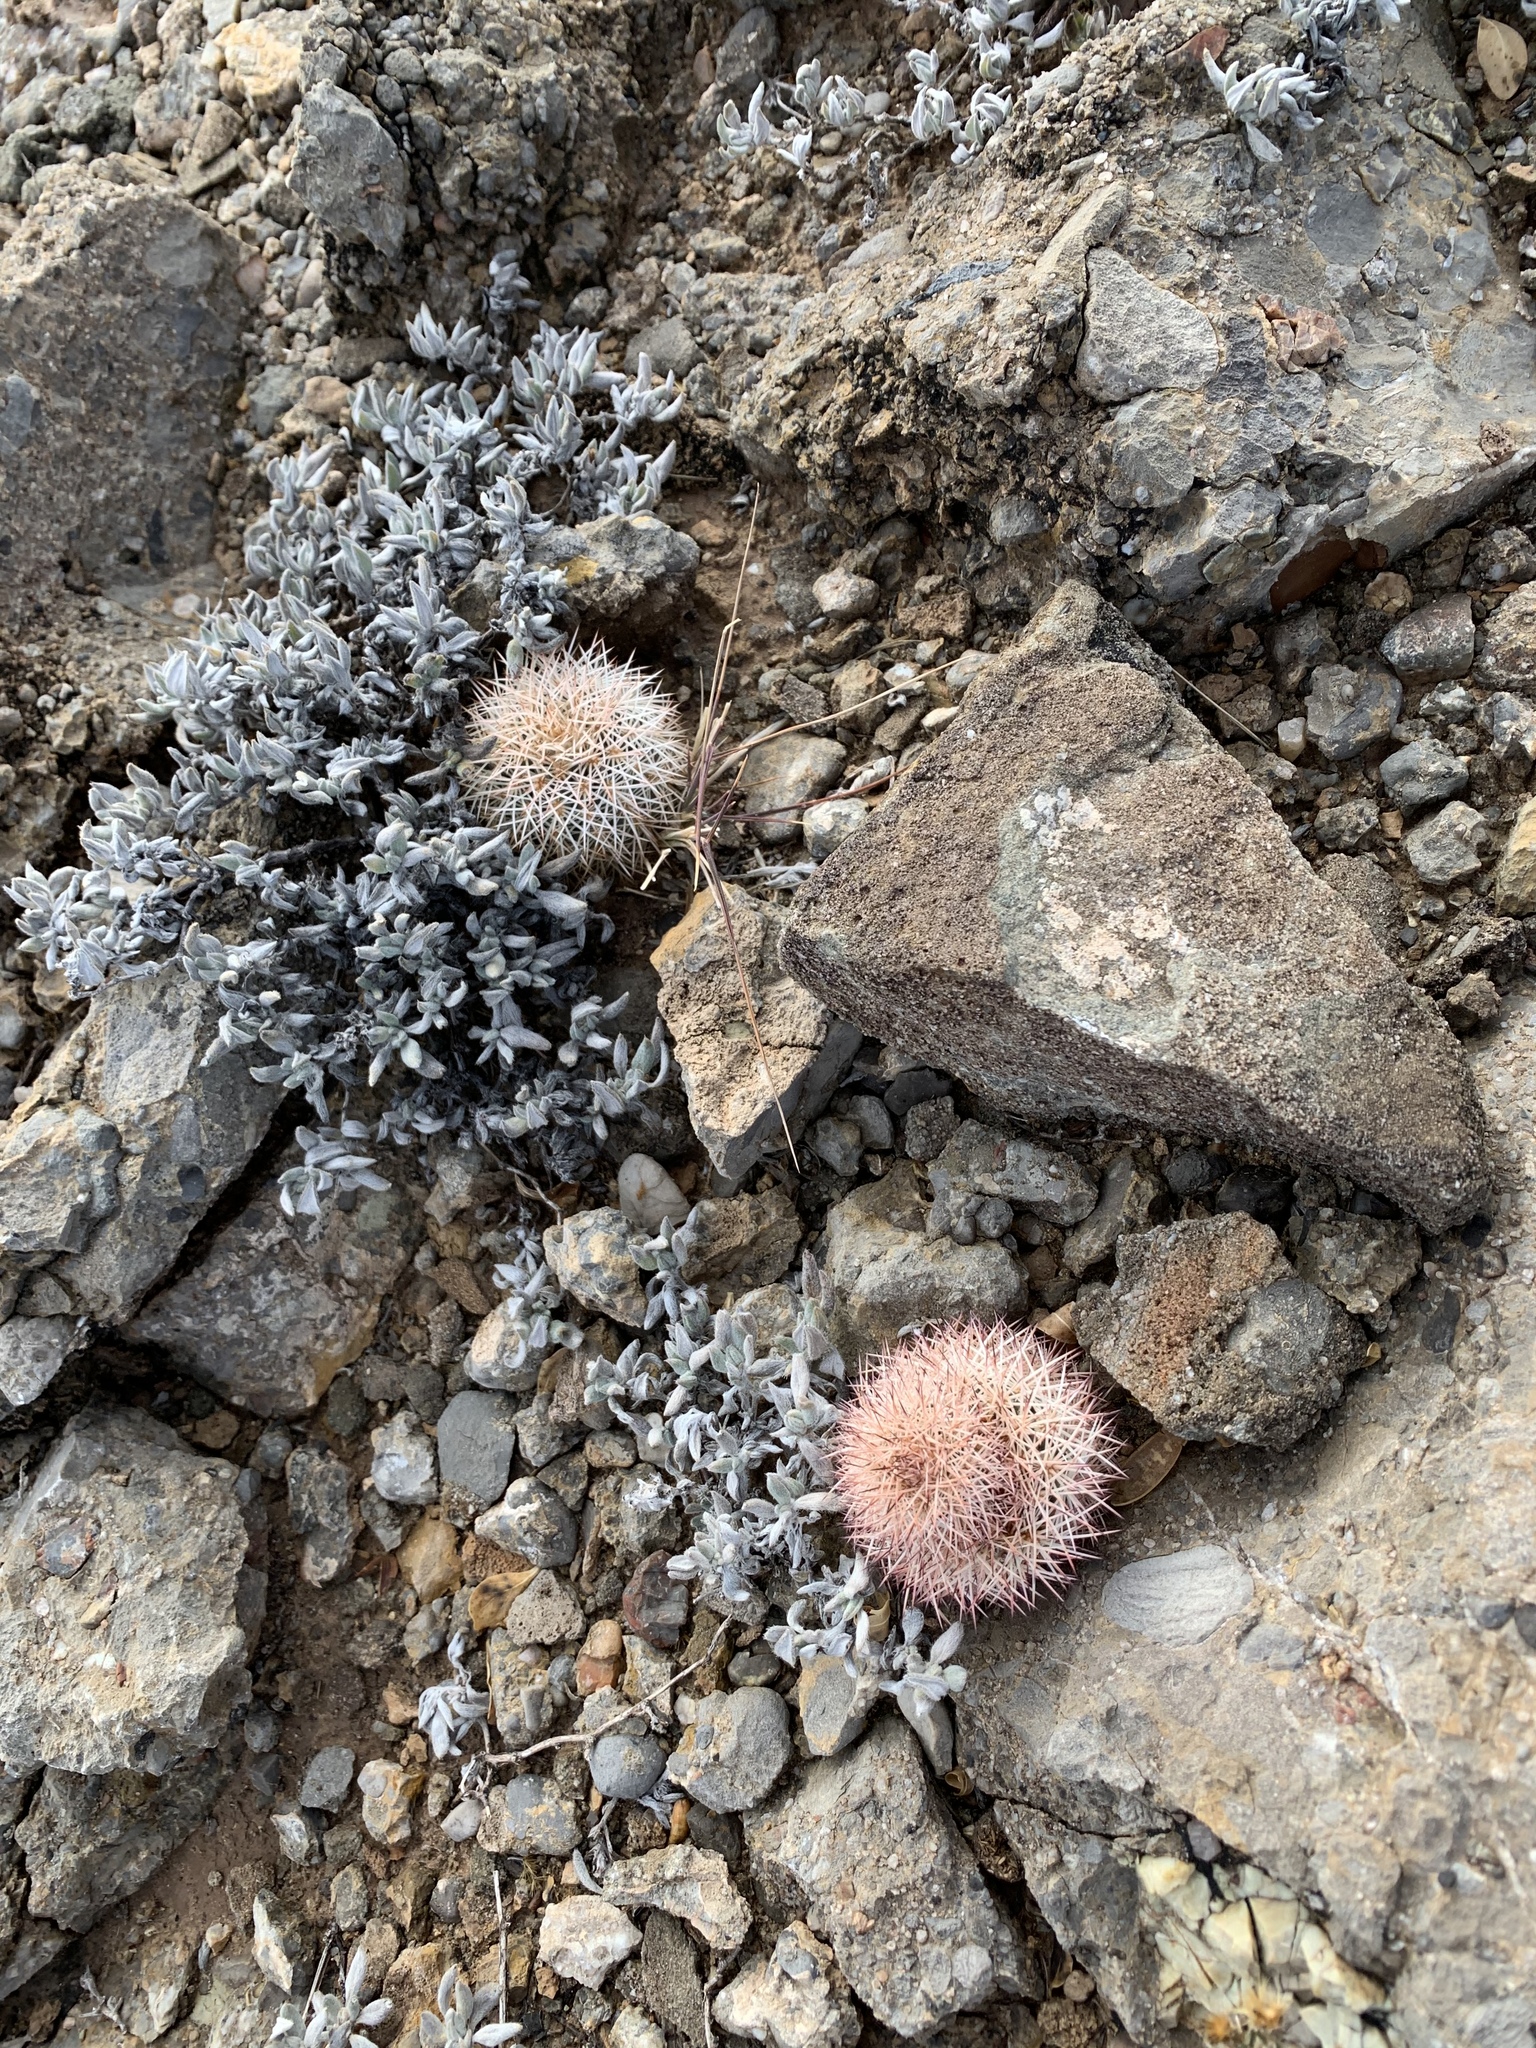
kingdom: Plantae
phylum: Tracheophyta
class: Magnoliopsida
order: Caryophyllales
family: Cactaceae
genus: Echinocereus
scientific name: Echinocereus dasyacanthus
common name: Spiny hedgehog cactus
